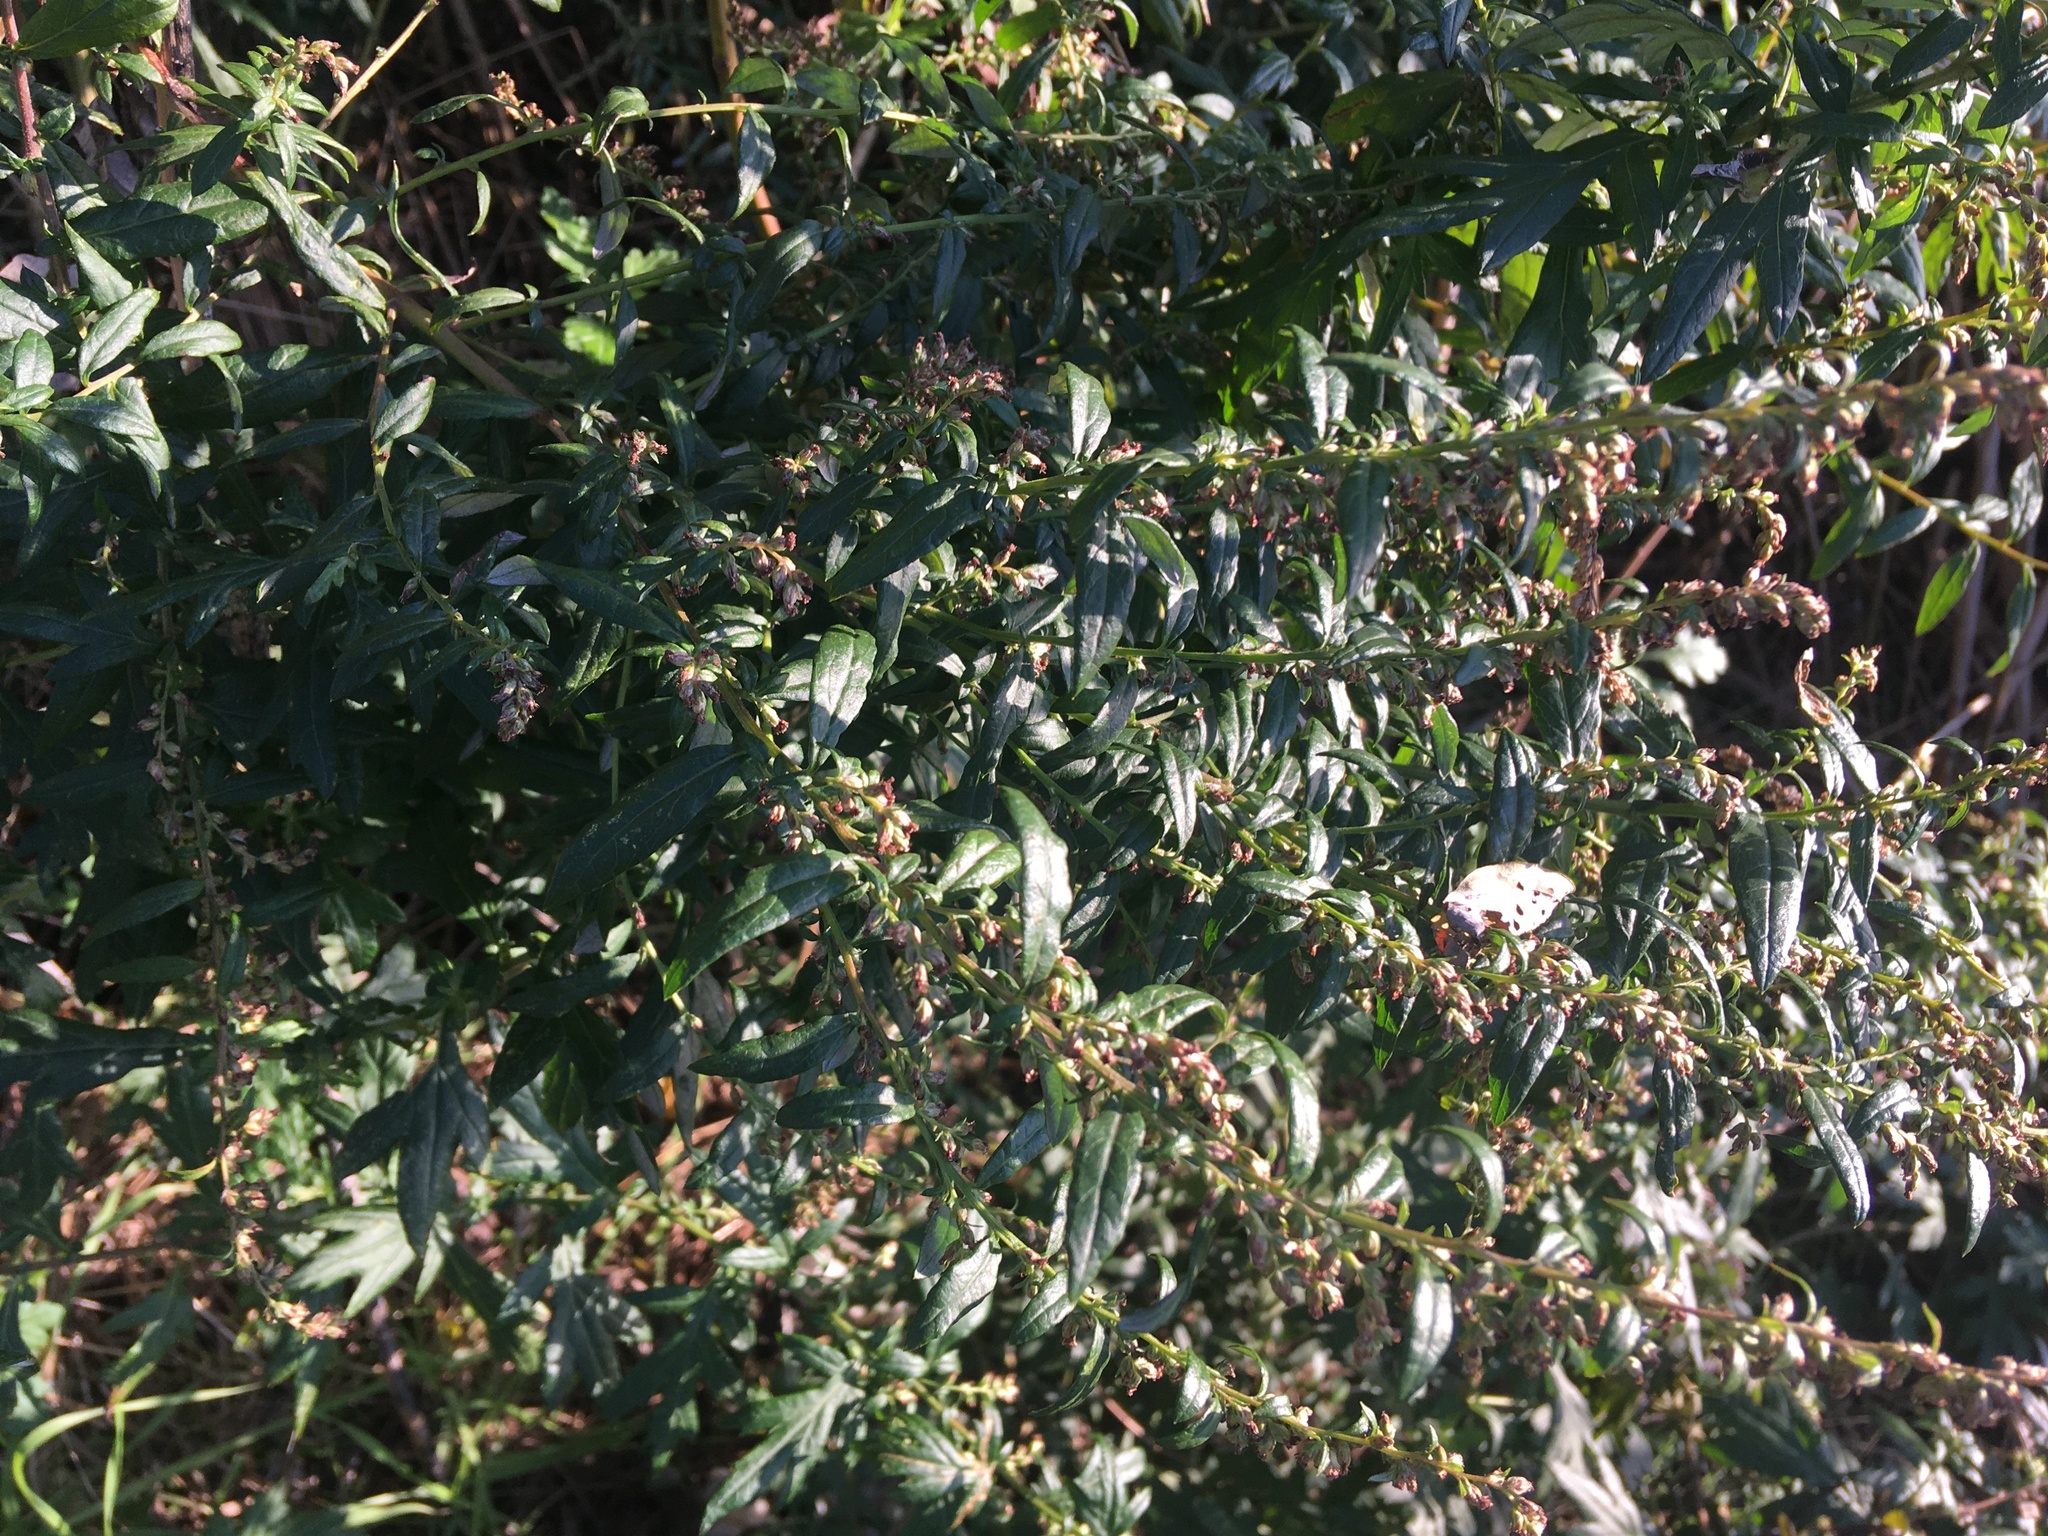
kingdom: Plantae
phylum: Tracheophyta
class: Magnoliopsida
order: Asterales
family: Asteraceae
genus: Artemisia
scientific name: Artemisia vulgaris
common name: Mugwort
